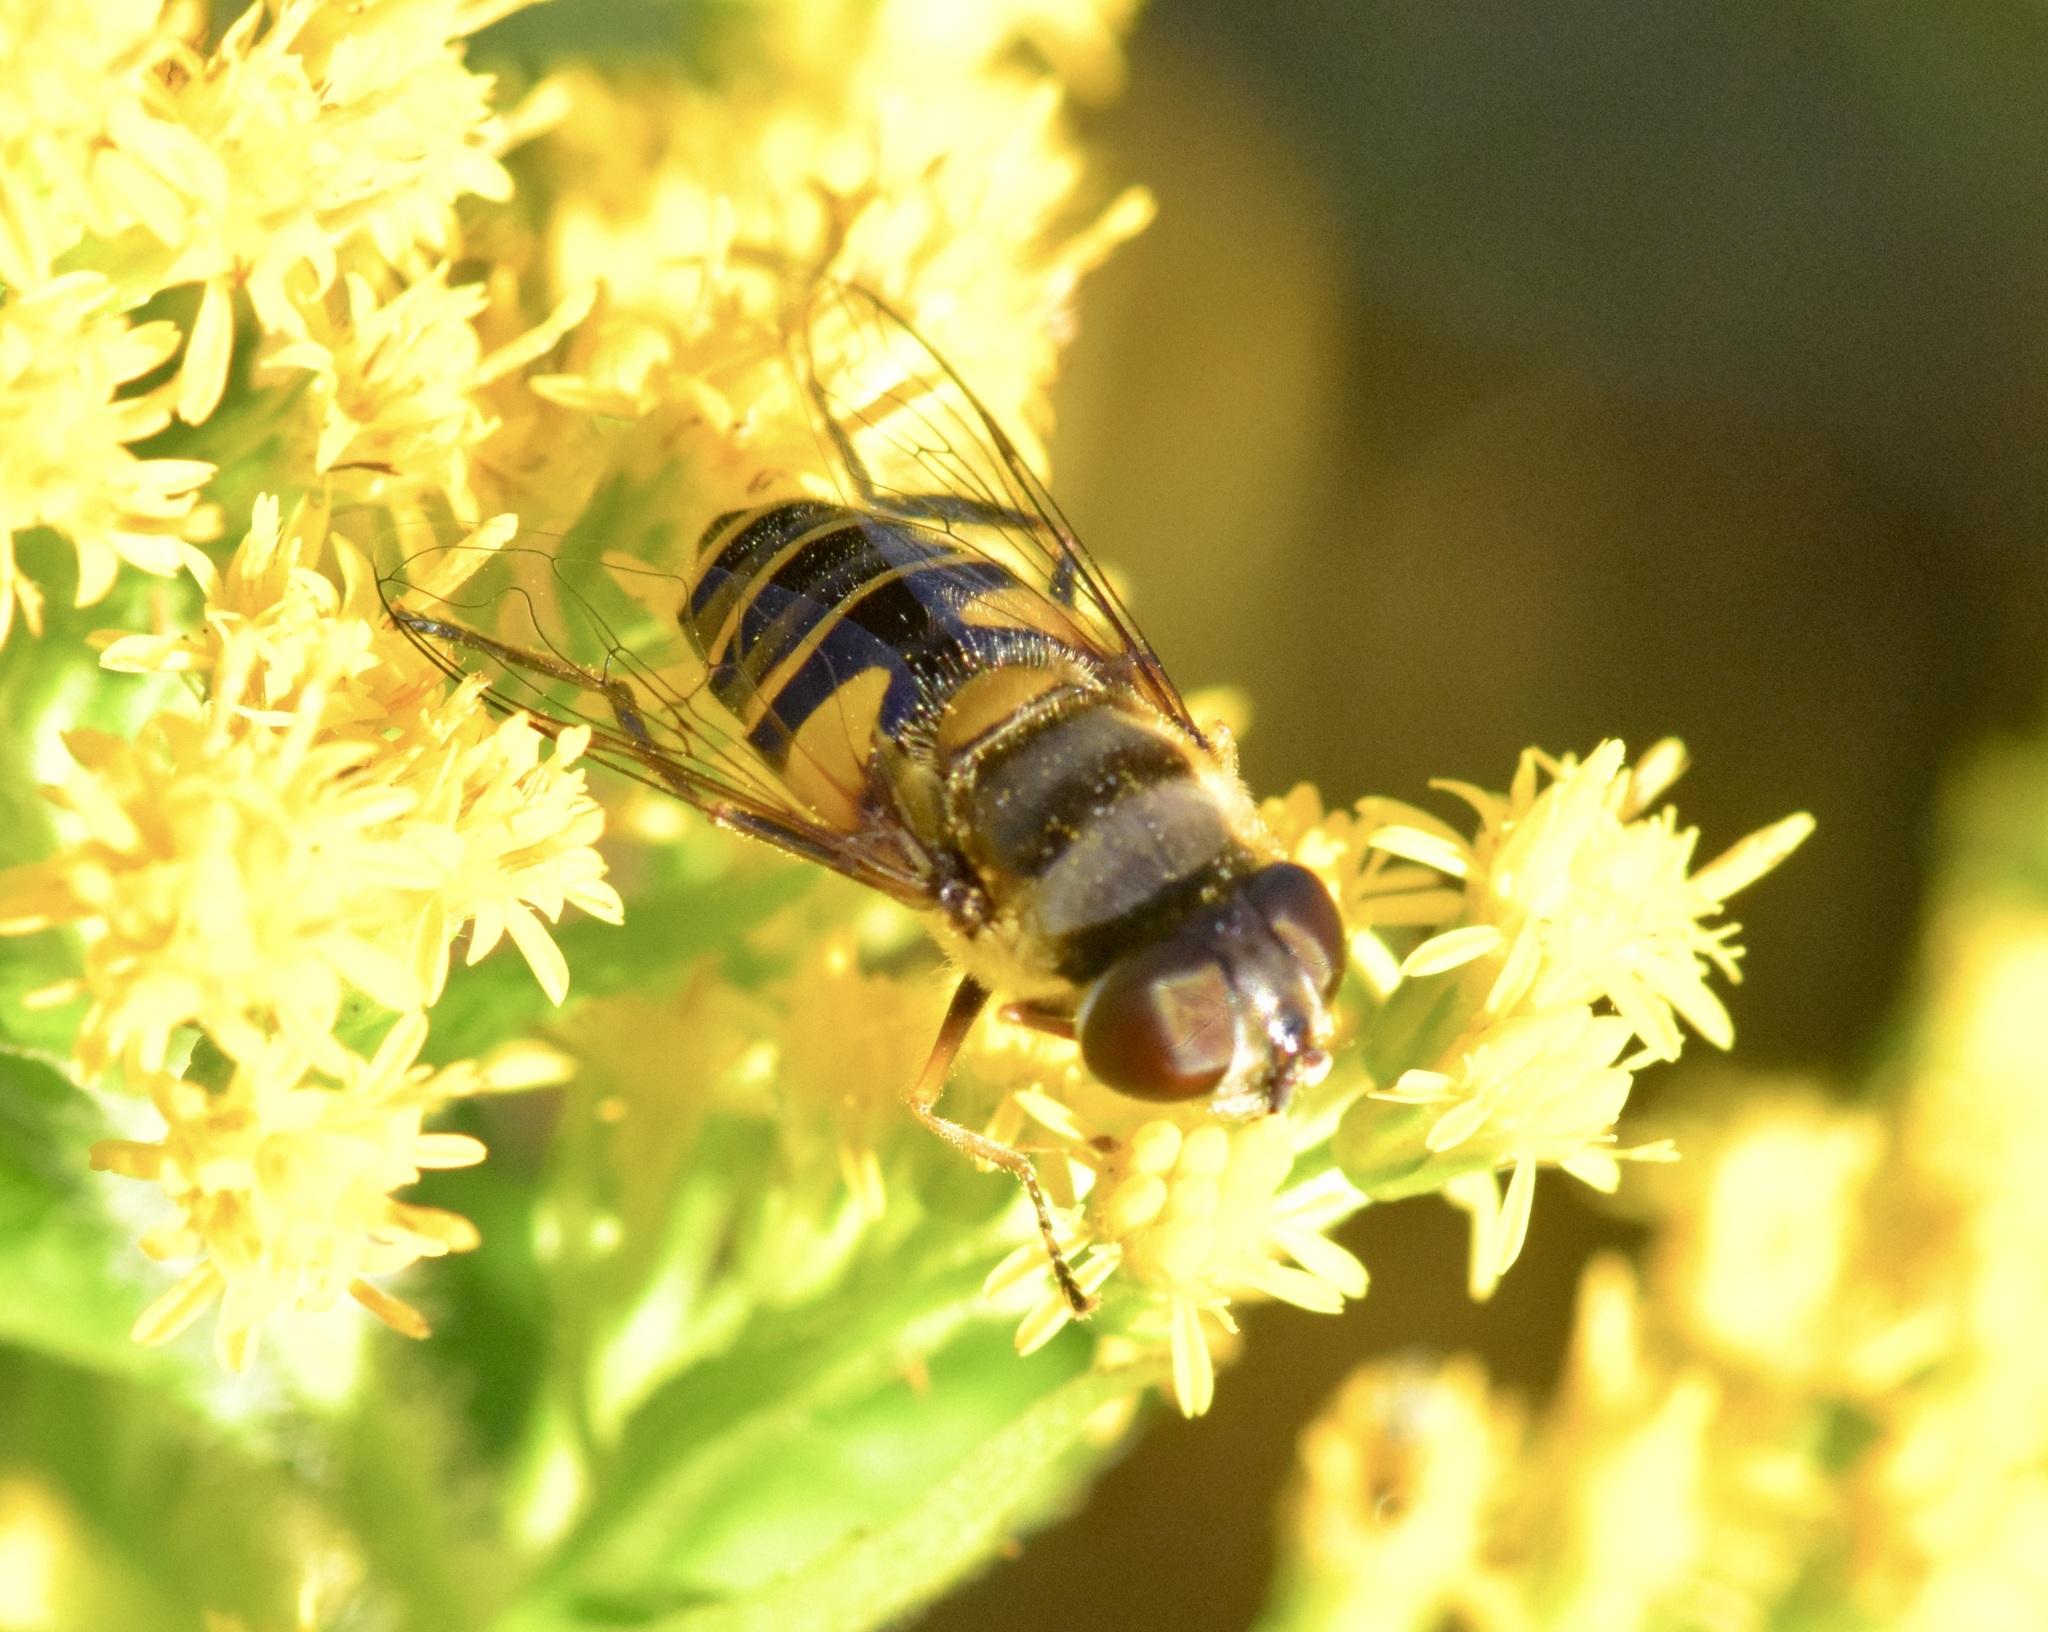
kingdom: Animalia
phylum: Arthropoda
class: Insecta
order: Diptera
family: Syrphidae
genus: Eristalis
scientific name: Eristalis transversa
